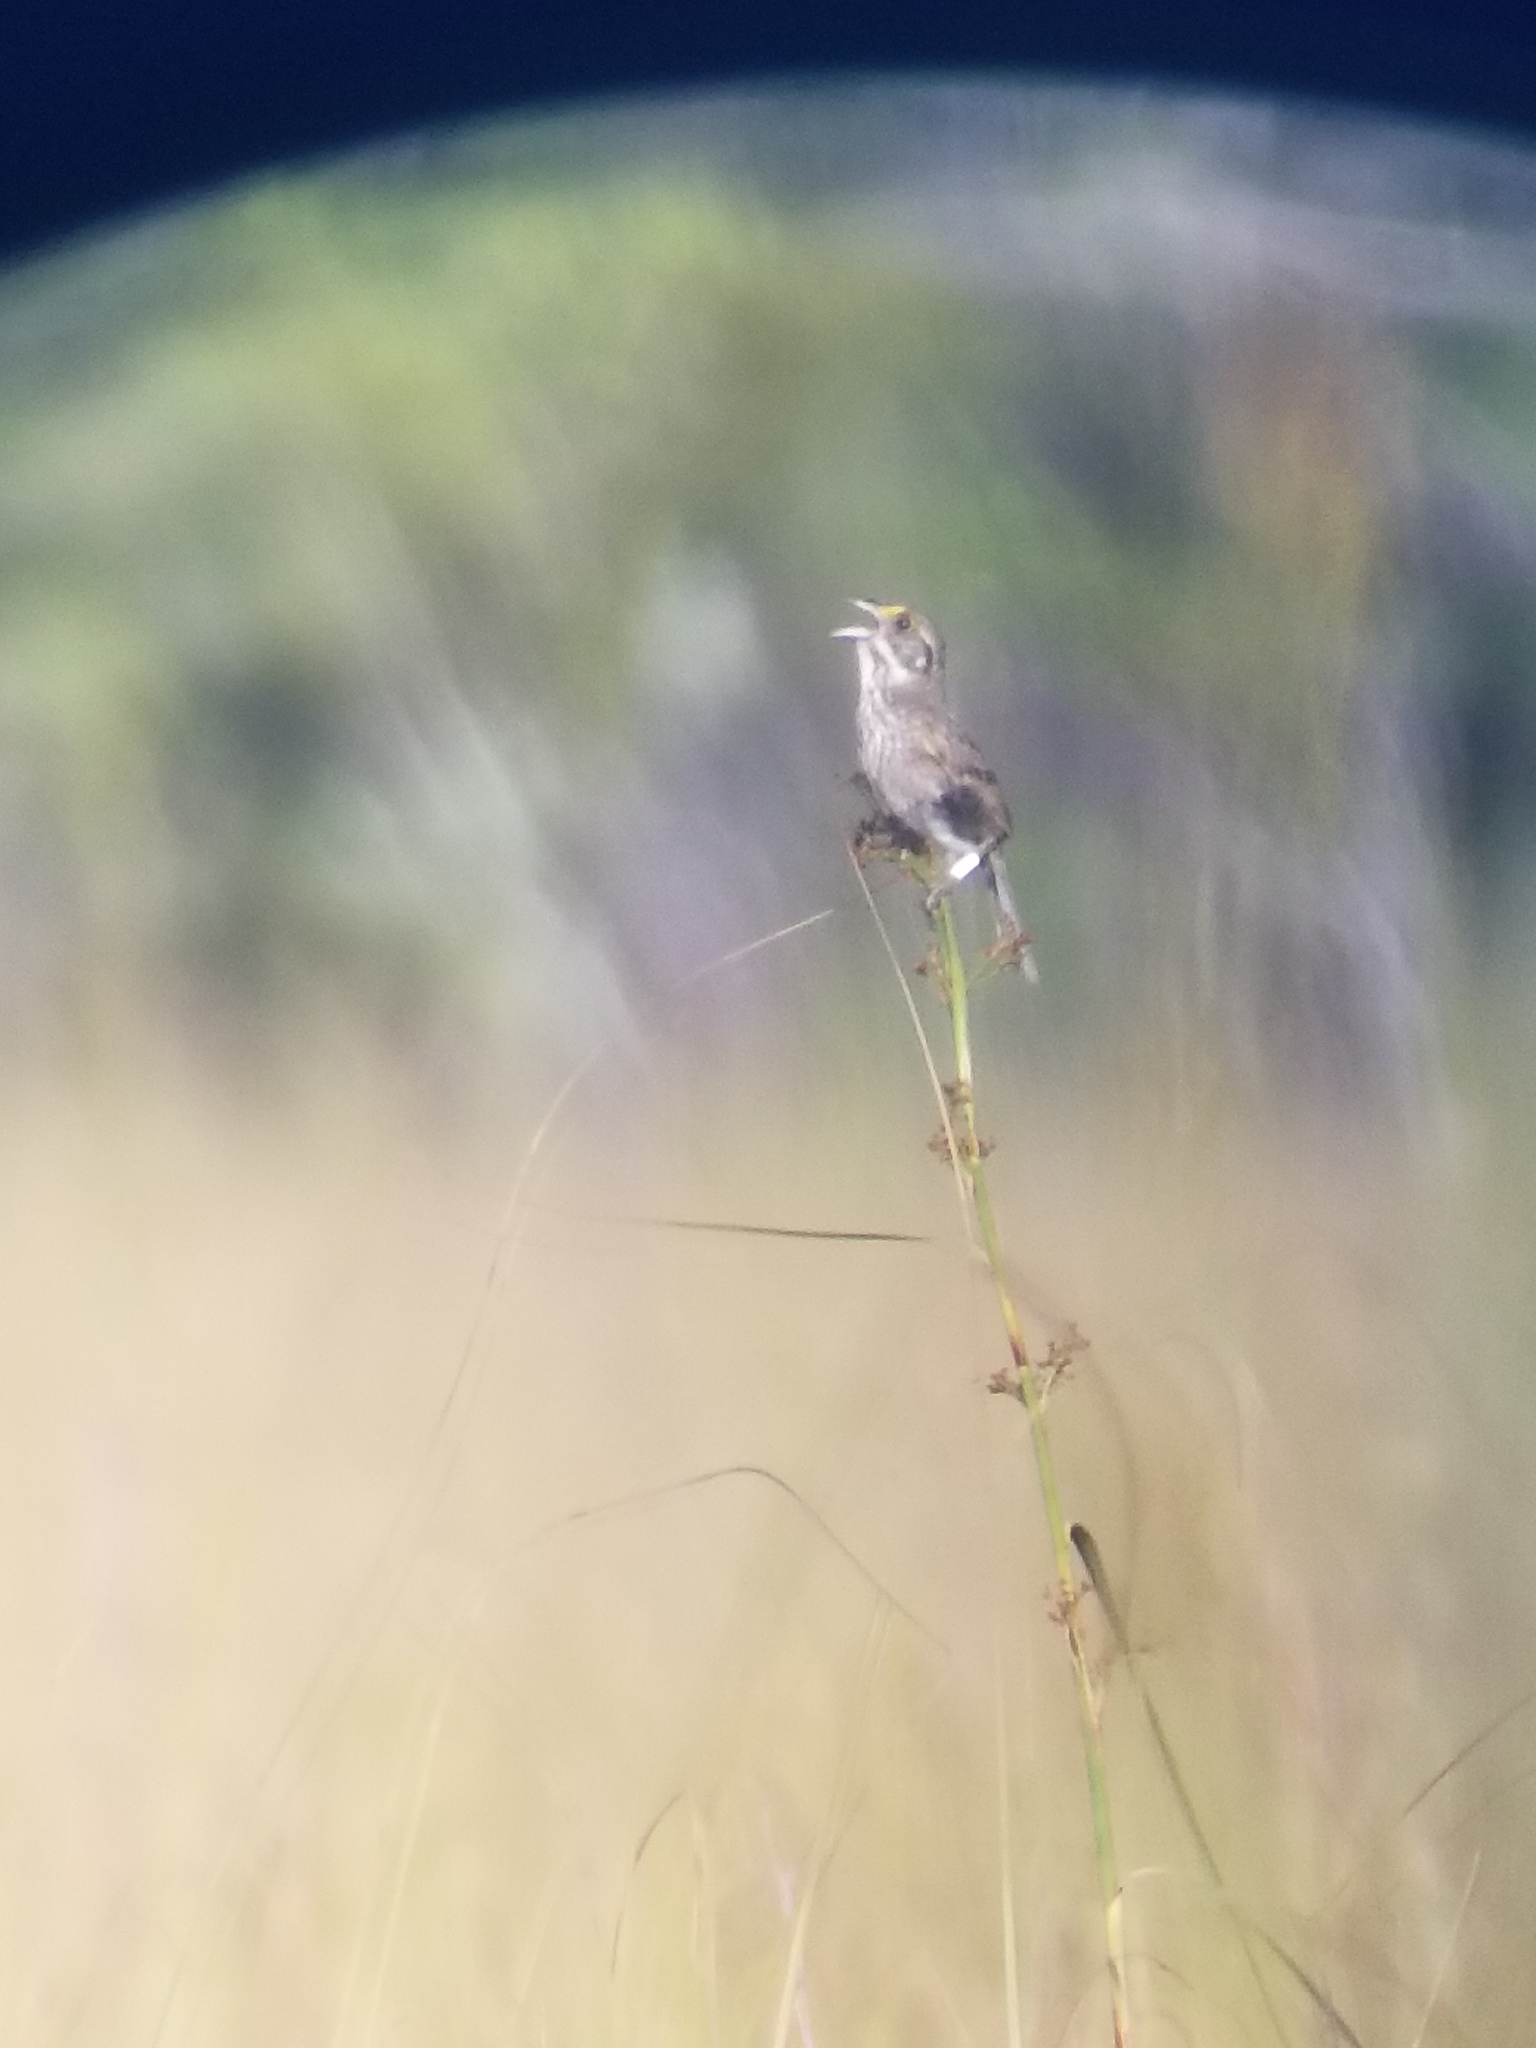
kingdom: Animalia
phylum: Chordata
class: Aves
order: Passeriformes
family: Passerellidae
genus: Ammospiza
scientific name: Ammospiza maritima
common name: Seaside sparrow
